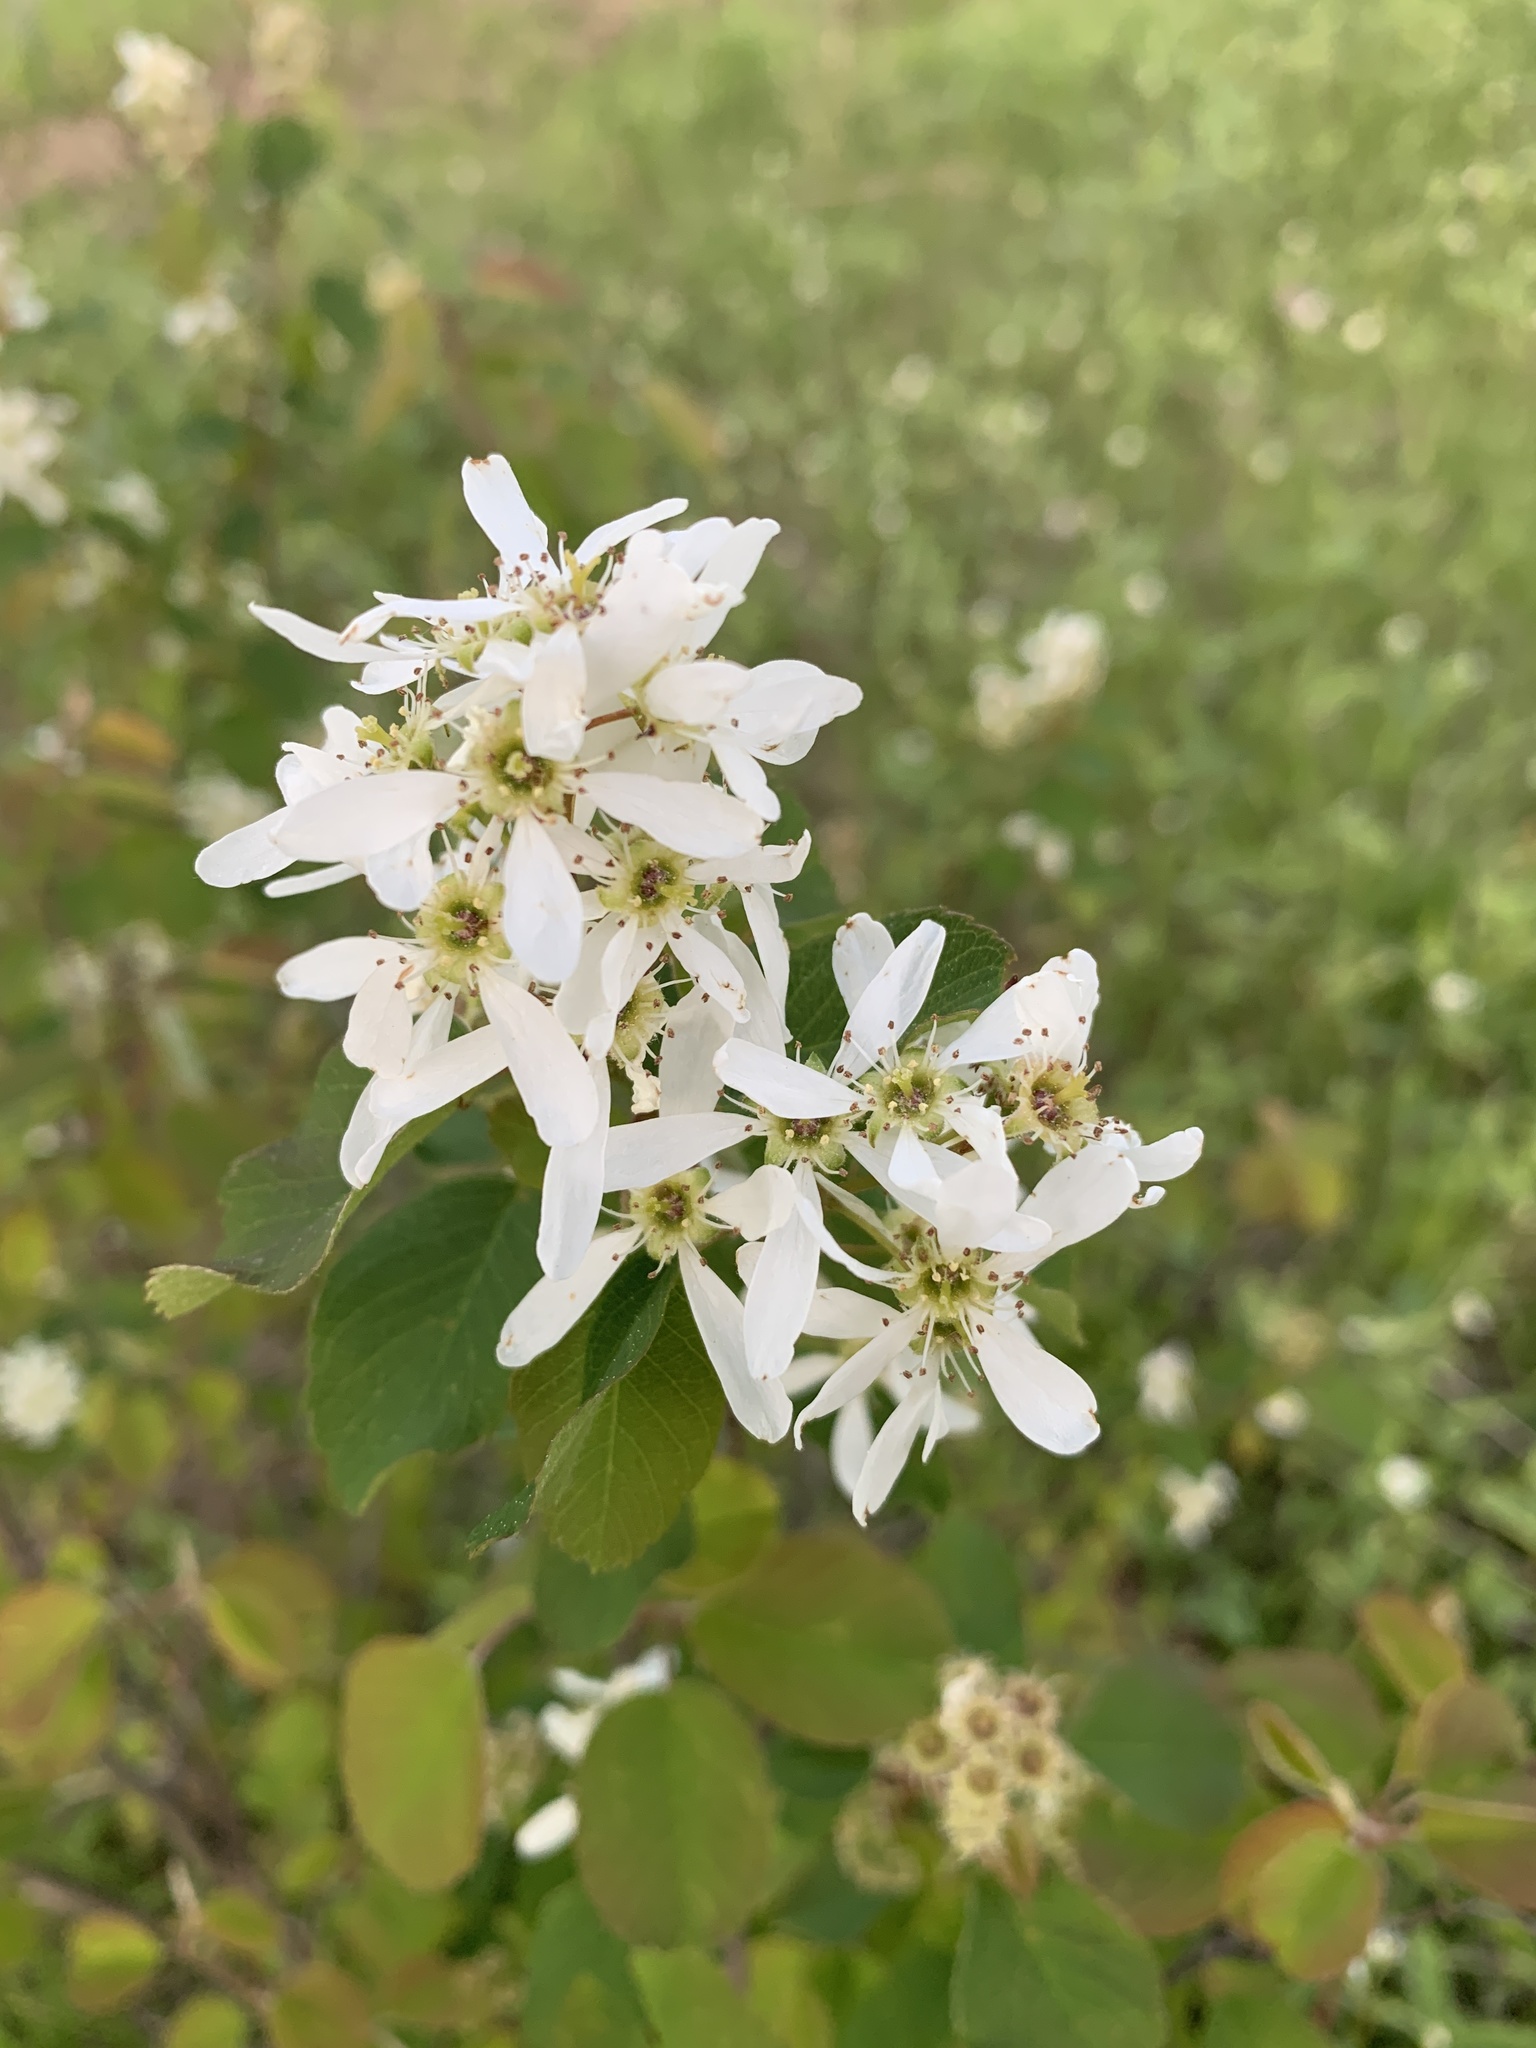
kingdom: Plantae
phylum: Tracheophyta
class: Magnoliopsida
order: Rosales
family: Rosaceae
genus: Amelanchier
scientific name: Amelanchier alnifolia
